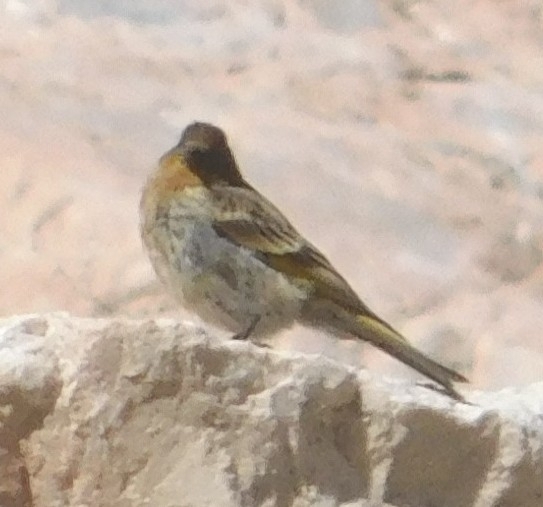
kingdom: Animalia
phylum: Chordata
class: Aves
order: Passeriformes
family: Fringillidae
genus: Serinus
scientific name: Serinus pusillus
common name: Red-fronted serin
